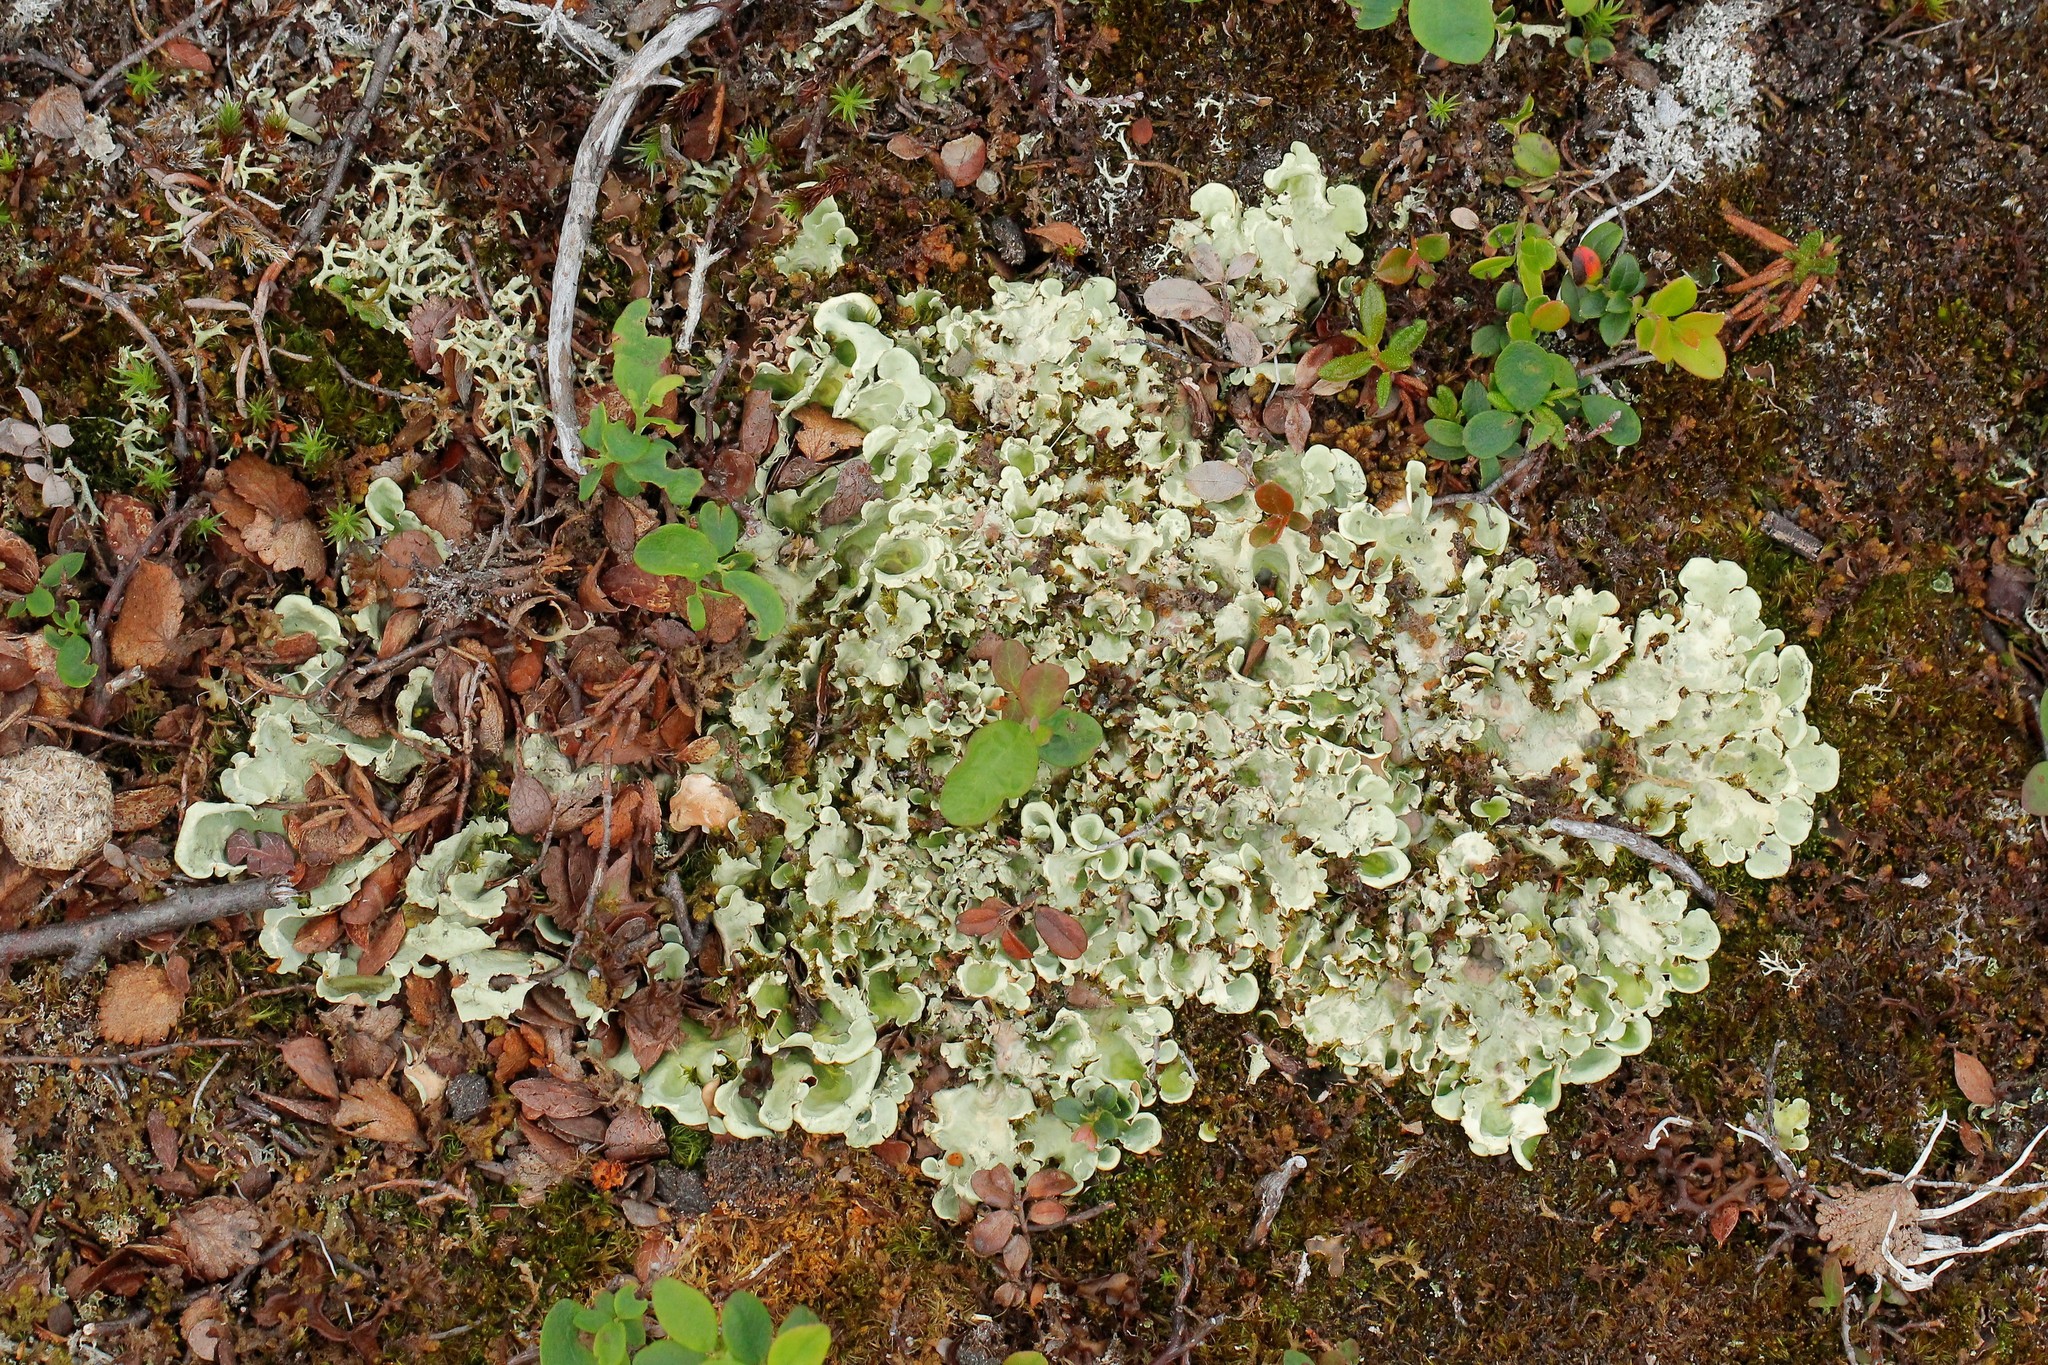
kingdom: Fungi
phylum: Ascomycota
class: Lecanoromycetes
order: Peltigerales
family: Nephromataceae
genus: Nephroma
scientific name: Nephroma arcticum
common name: Arctic kidney-lichen
